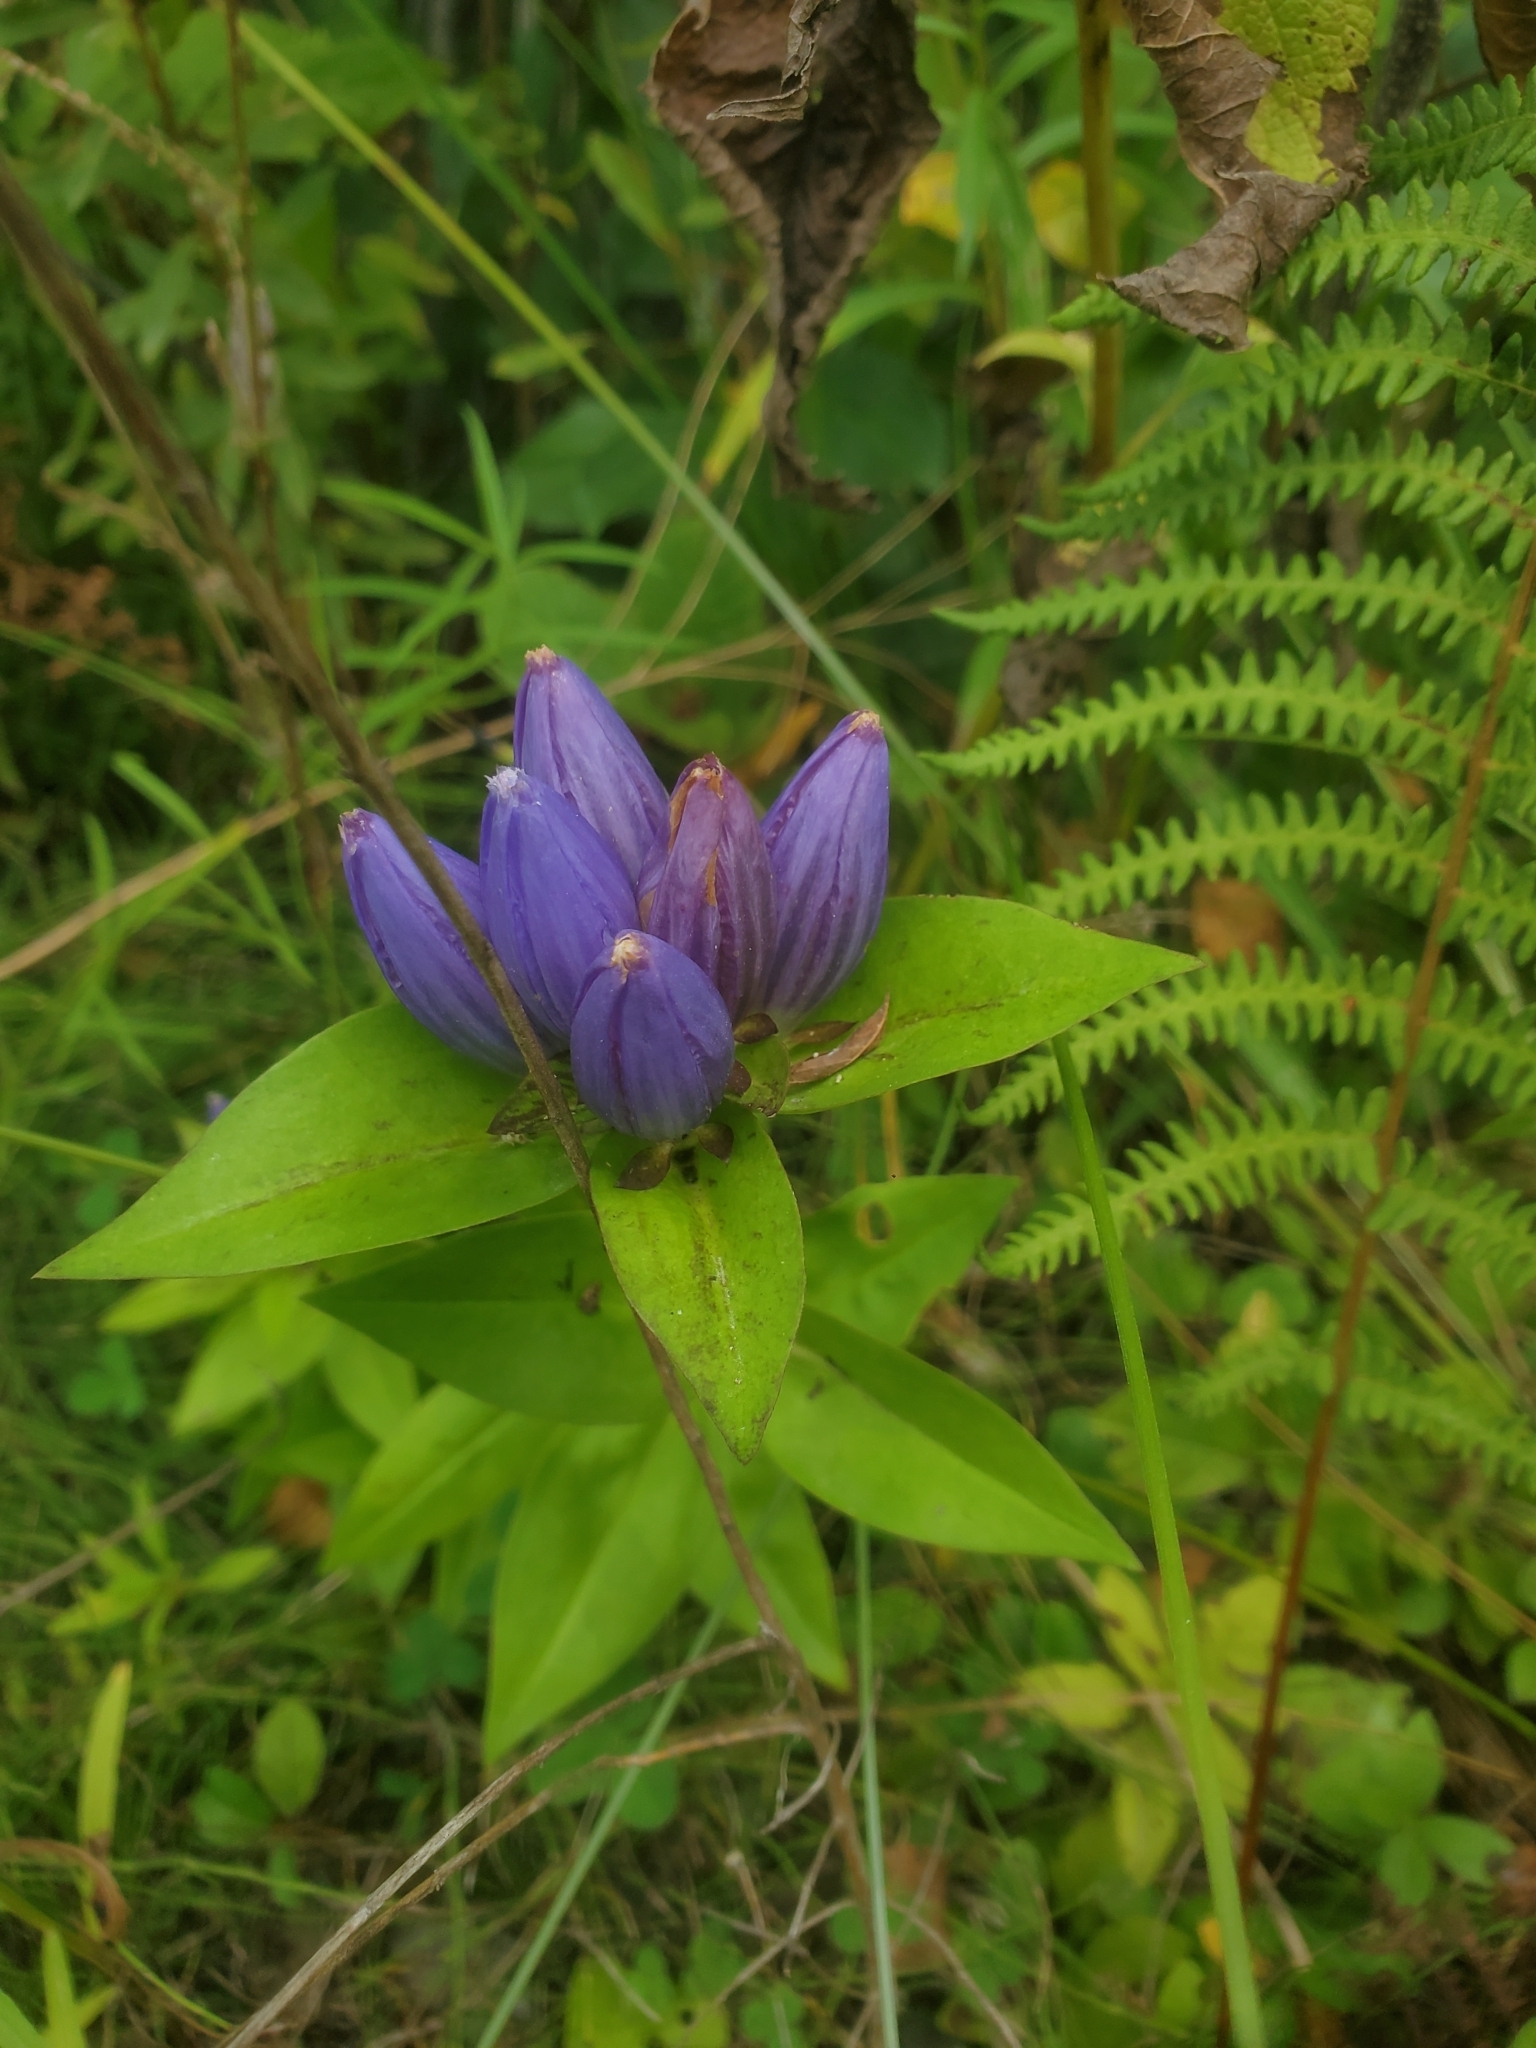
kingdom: Plantae
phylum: Tracheophyta
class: Magnoliopsida
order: Gentianales
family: Gentianaceae
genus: Gentiana
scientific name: Gentiana andrewsii
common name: Bottle gentian
